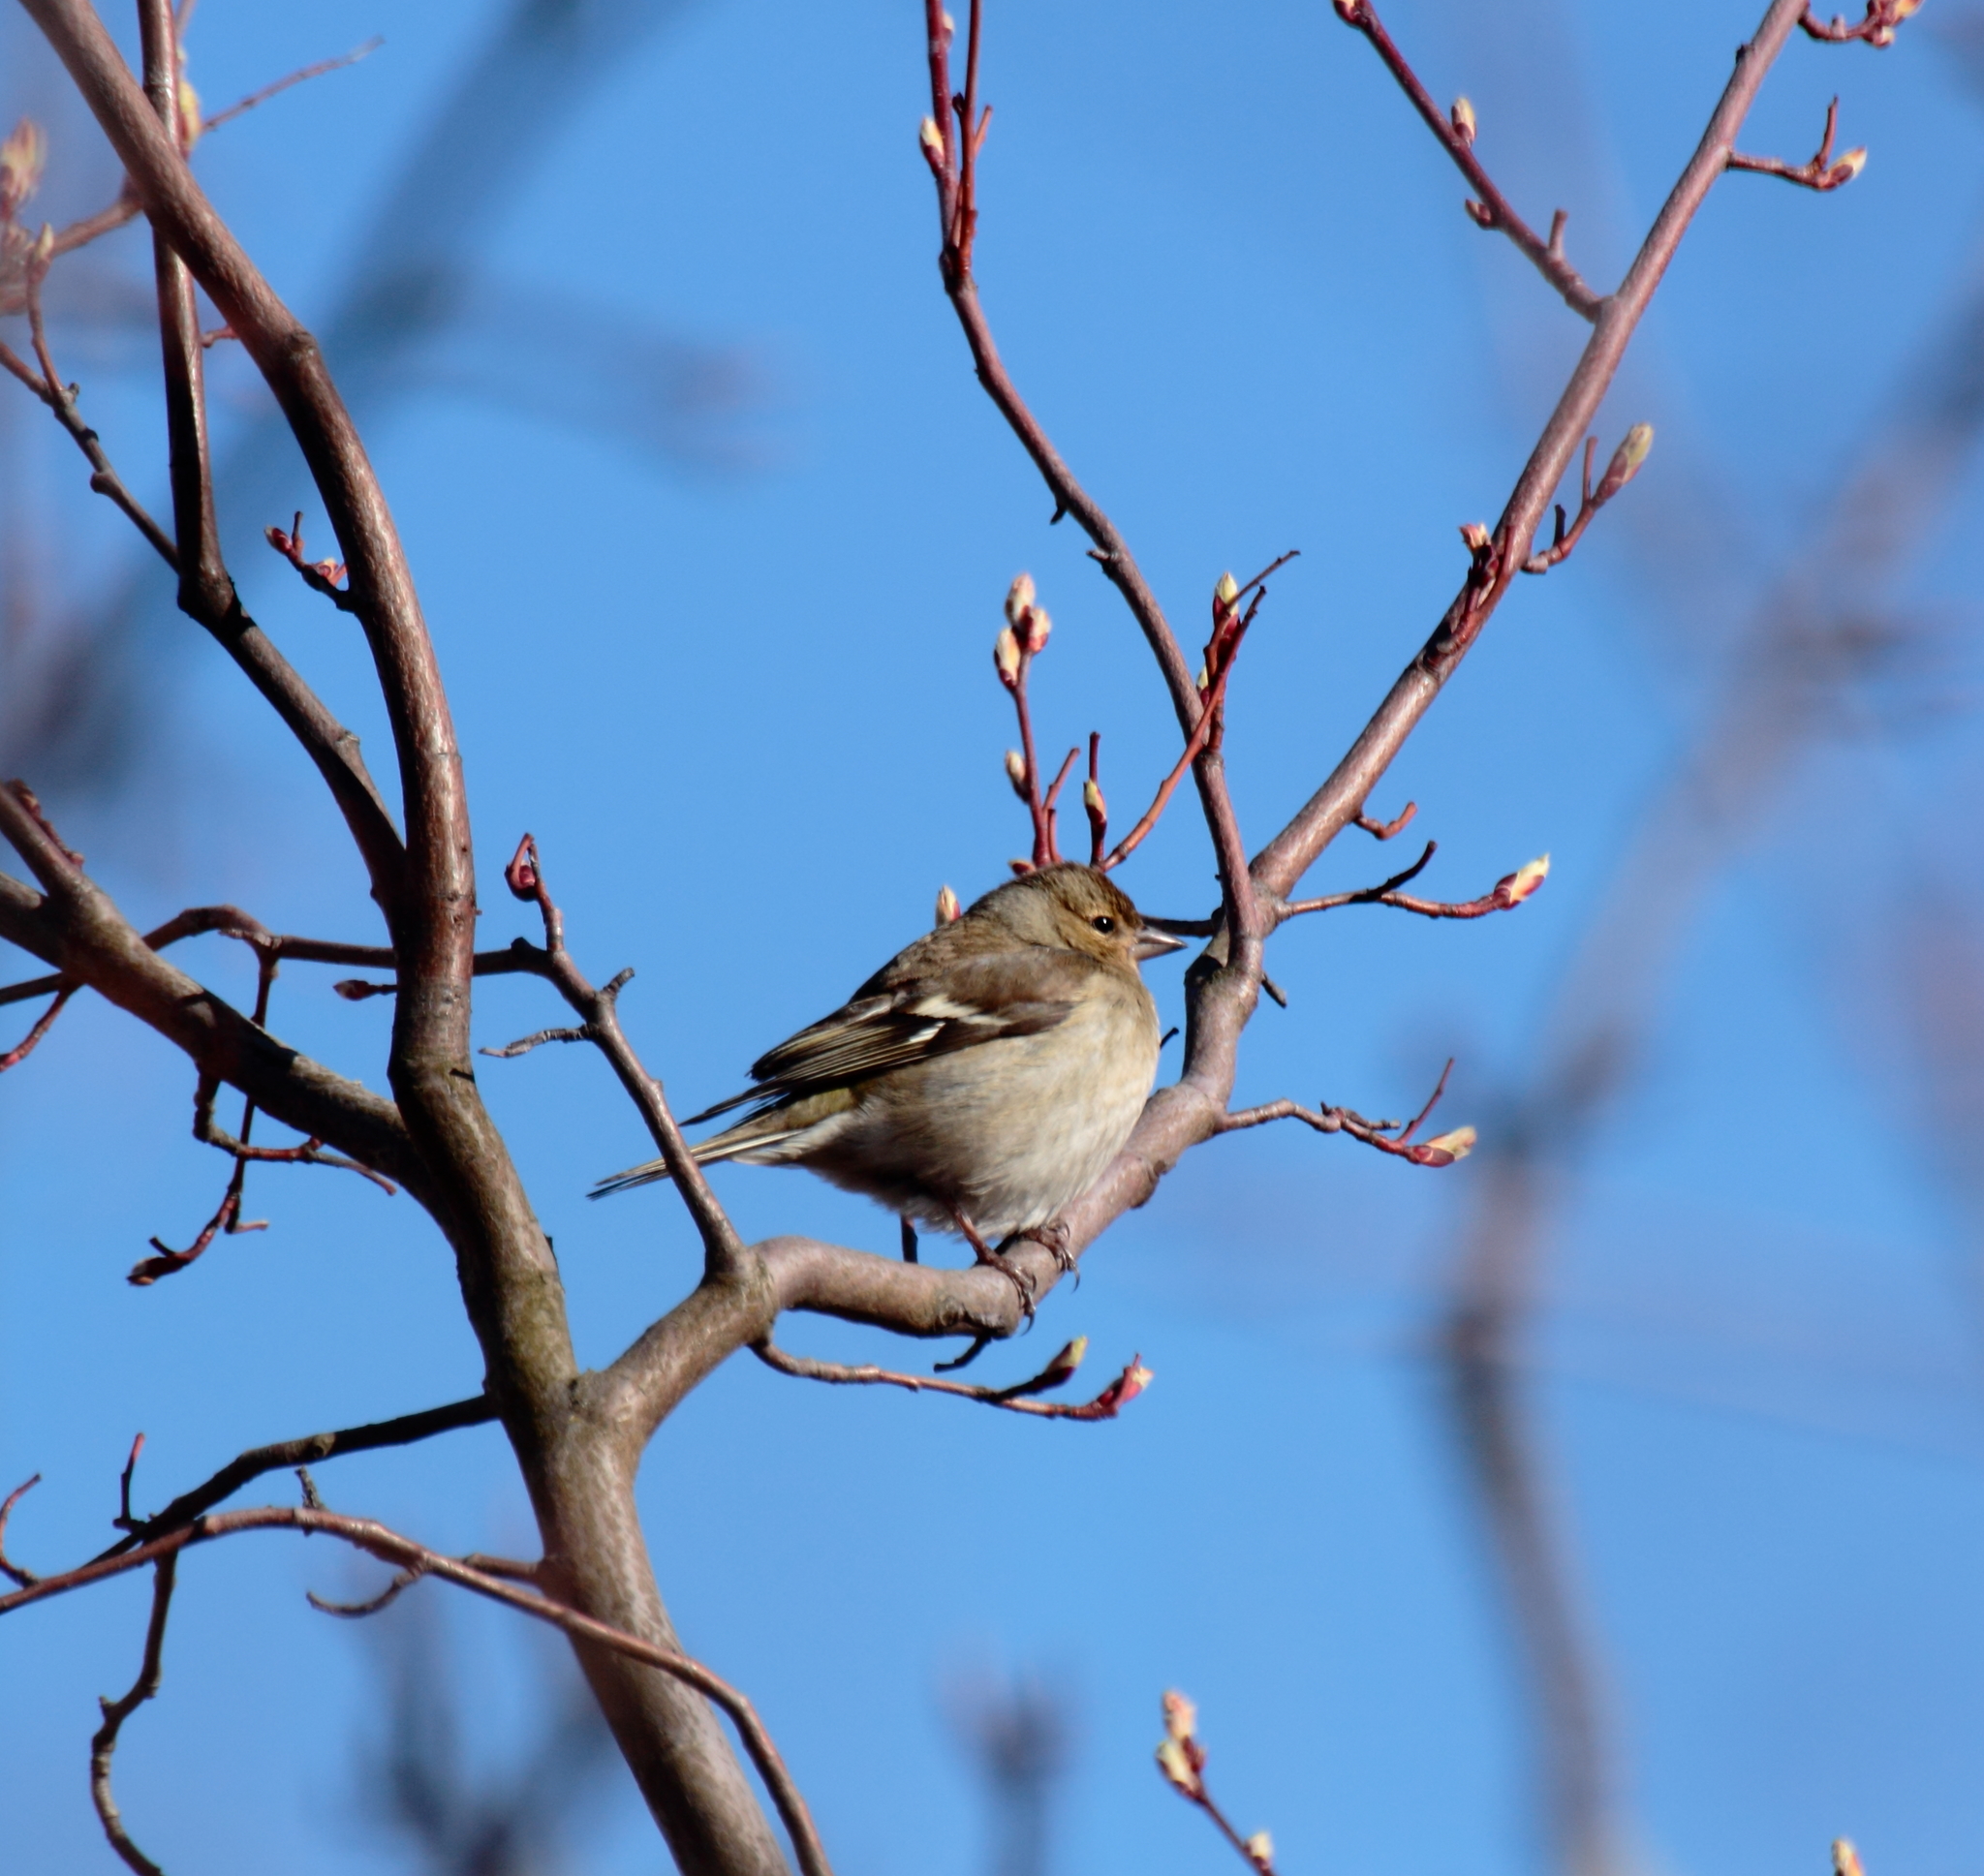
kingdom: Animalia
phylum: Chordata
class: Aves
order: Passeriformes
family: Fringillidae
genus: Fringilla
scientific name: Fringilla coelebs
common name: Common chaffinch
